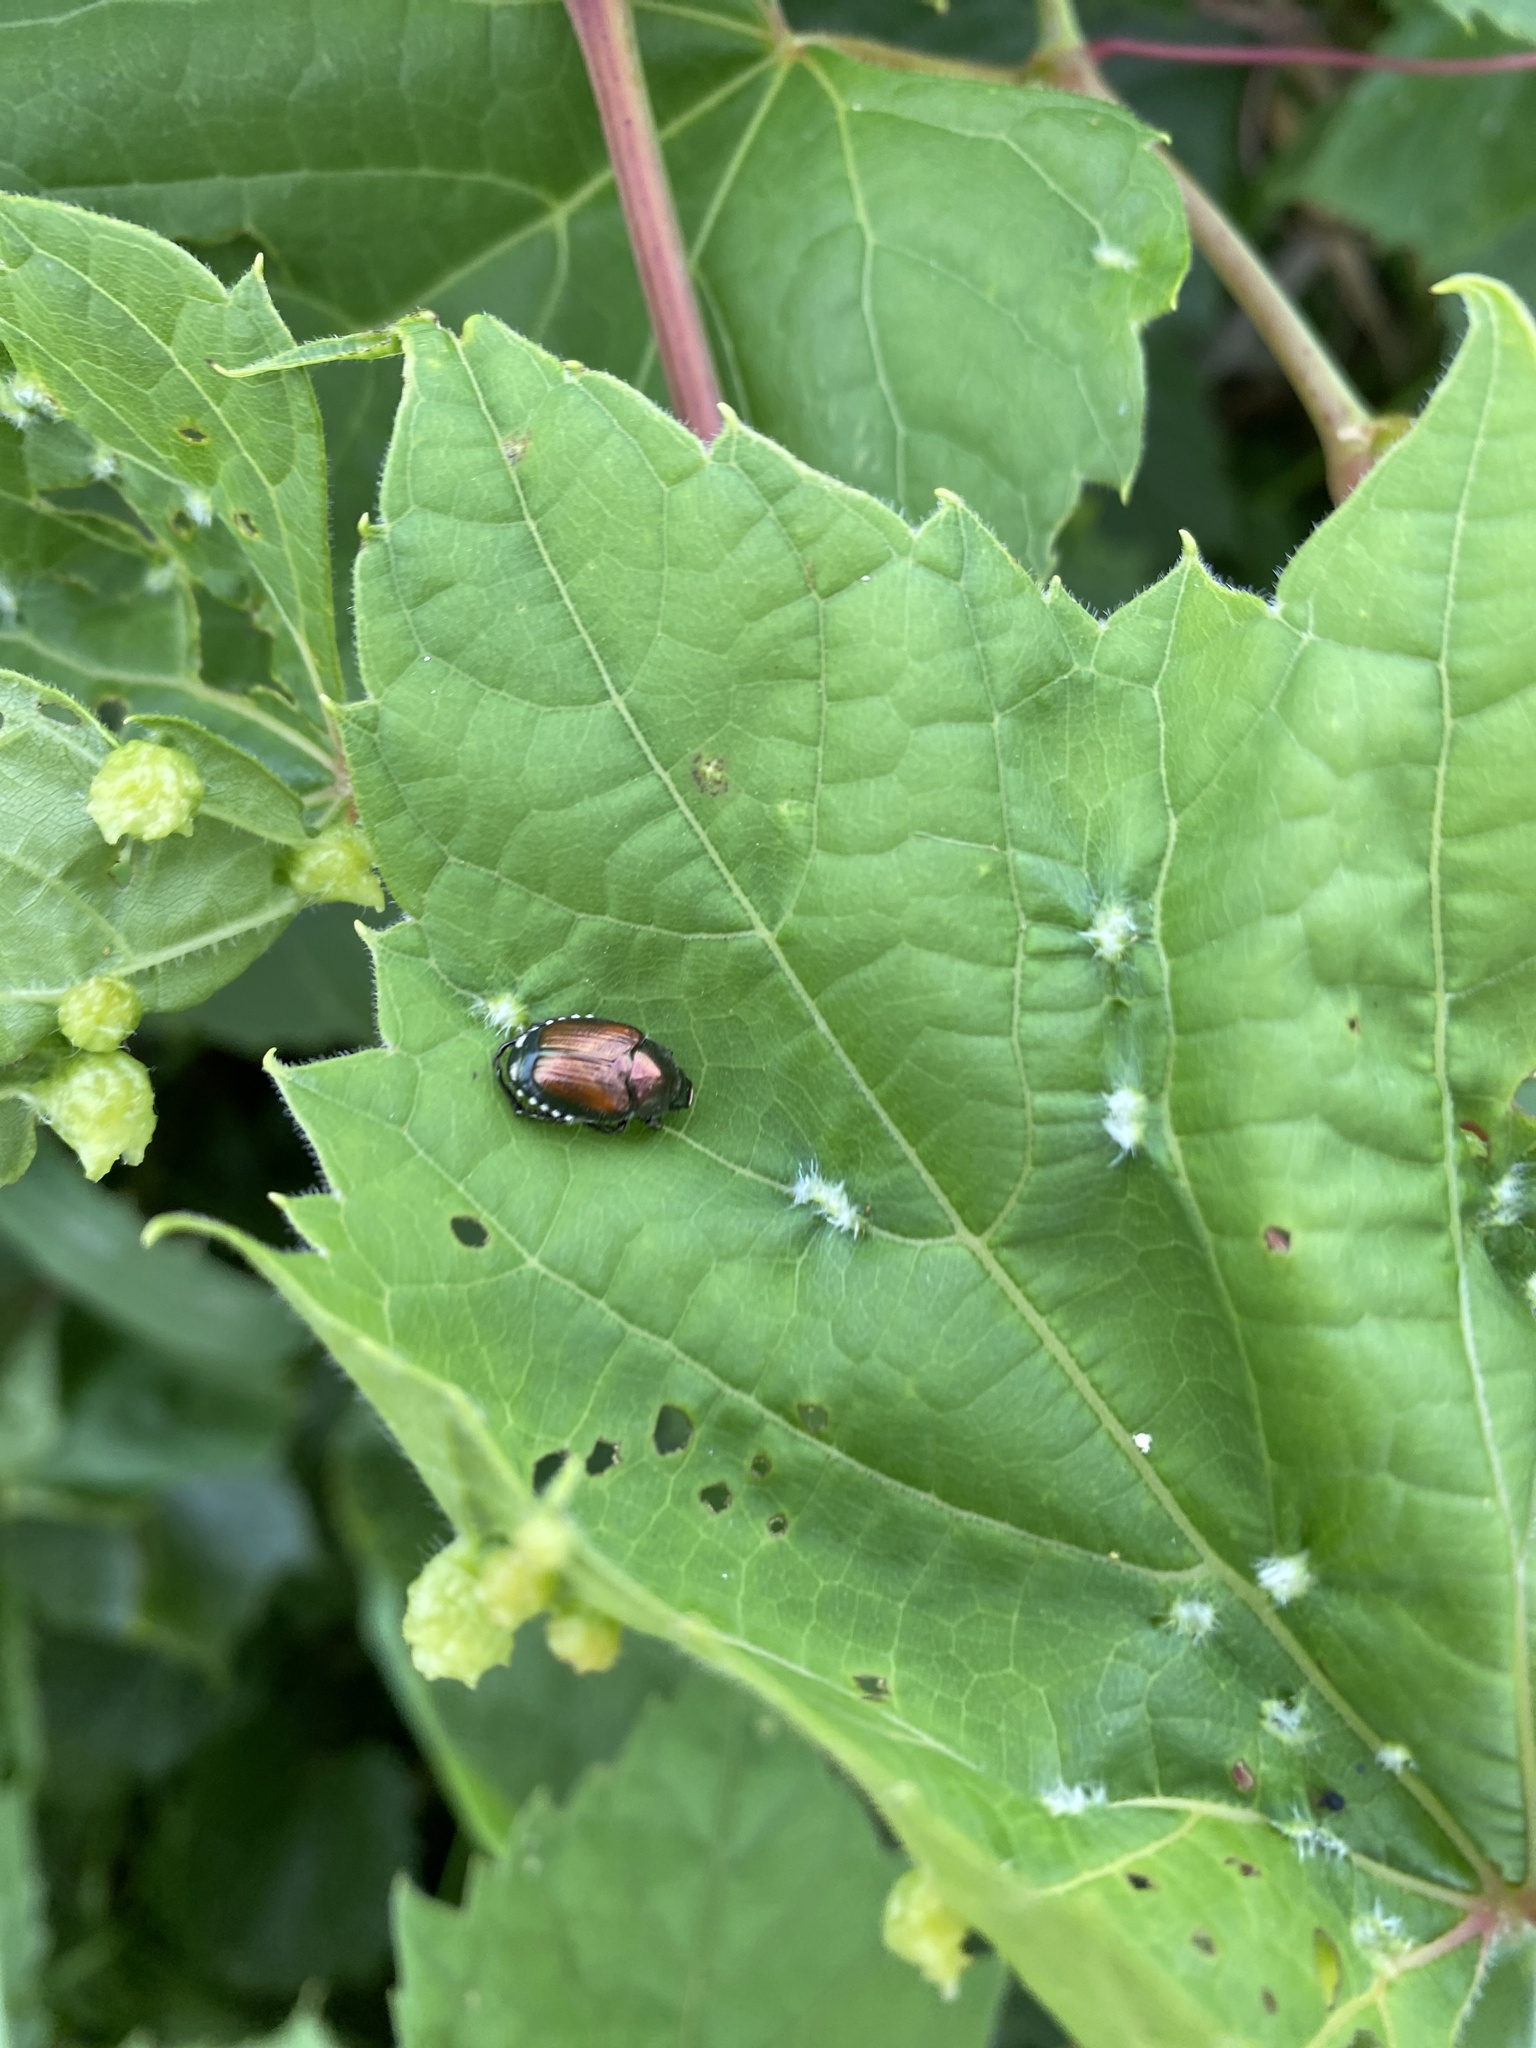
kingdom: Animalia
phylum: Arthropoda
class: Insecta
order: Coleoptera
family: Scarabaeidae
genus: Popillia
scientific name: Popillia japonica
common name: Japanese beetle
